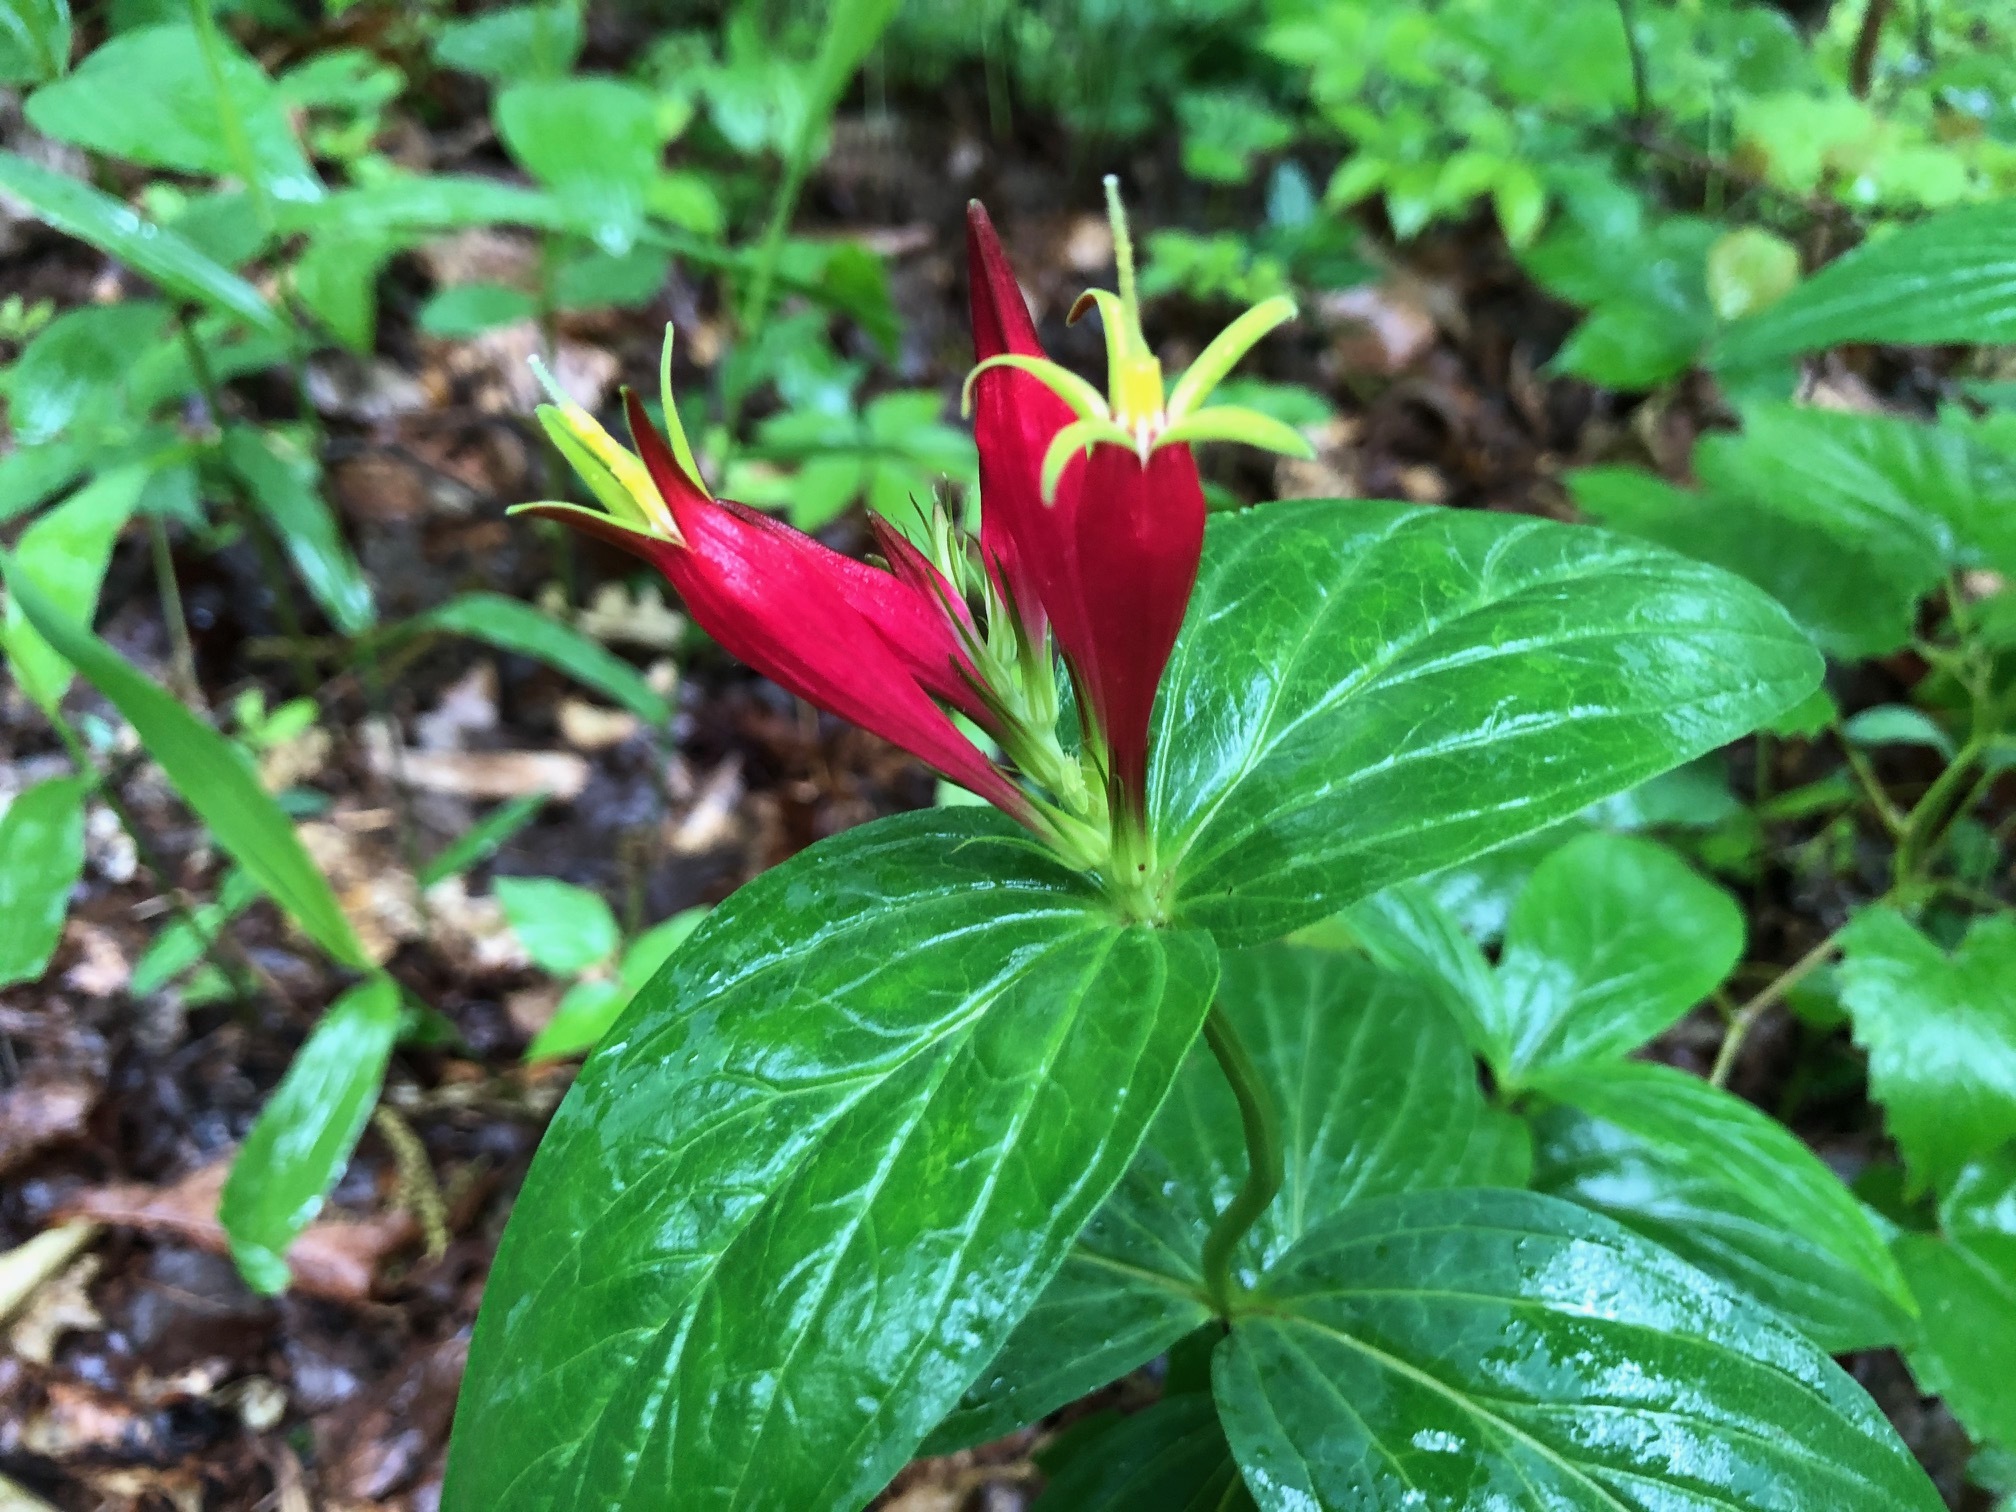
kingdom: Plantae
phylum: Tracheophyta
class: Magnoliopsida
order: Gentianales
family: Loganiaceae
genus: Spigelia
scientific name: Spigelia marilandica
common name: Indian-pink
